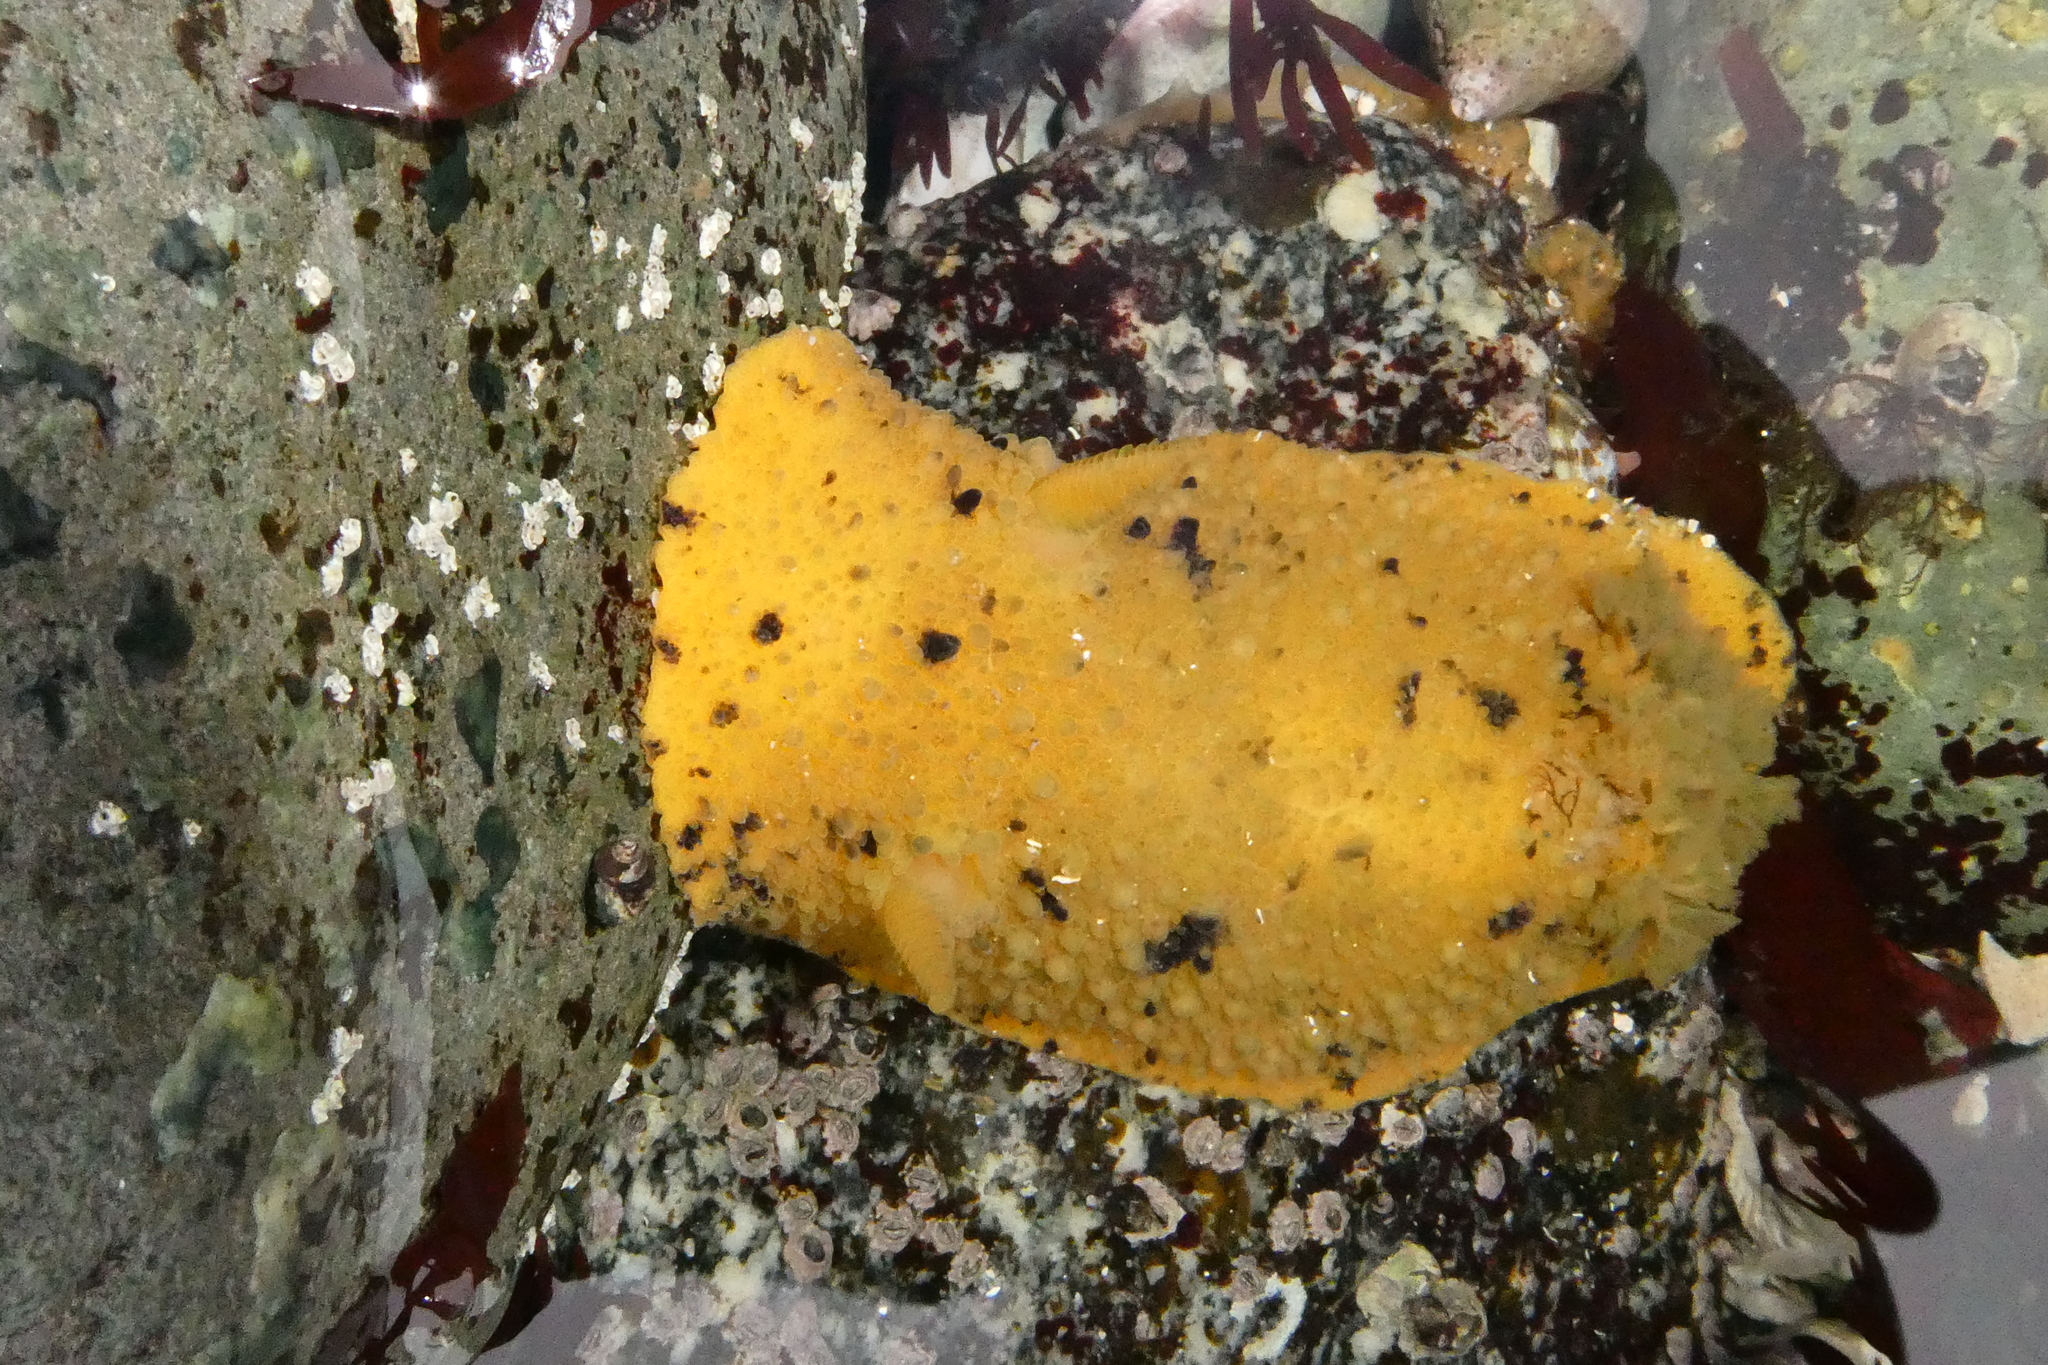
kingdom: Animalia
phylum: Mollusca
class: Gastropoda
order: Nudibranchia
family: Dorididae
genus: Doris
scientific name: Doris montereyensis
